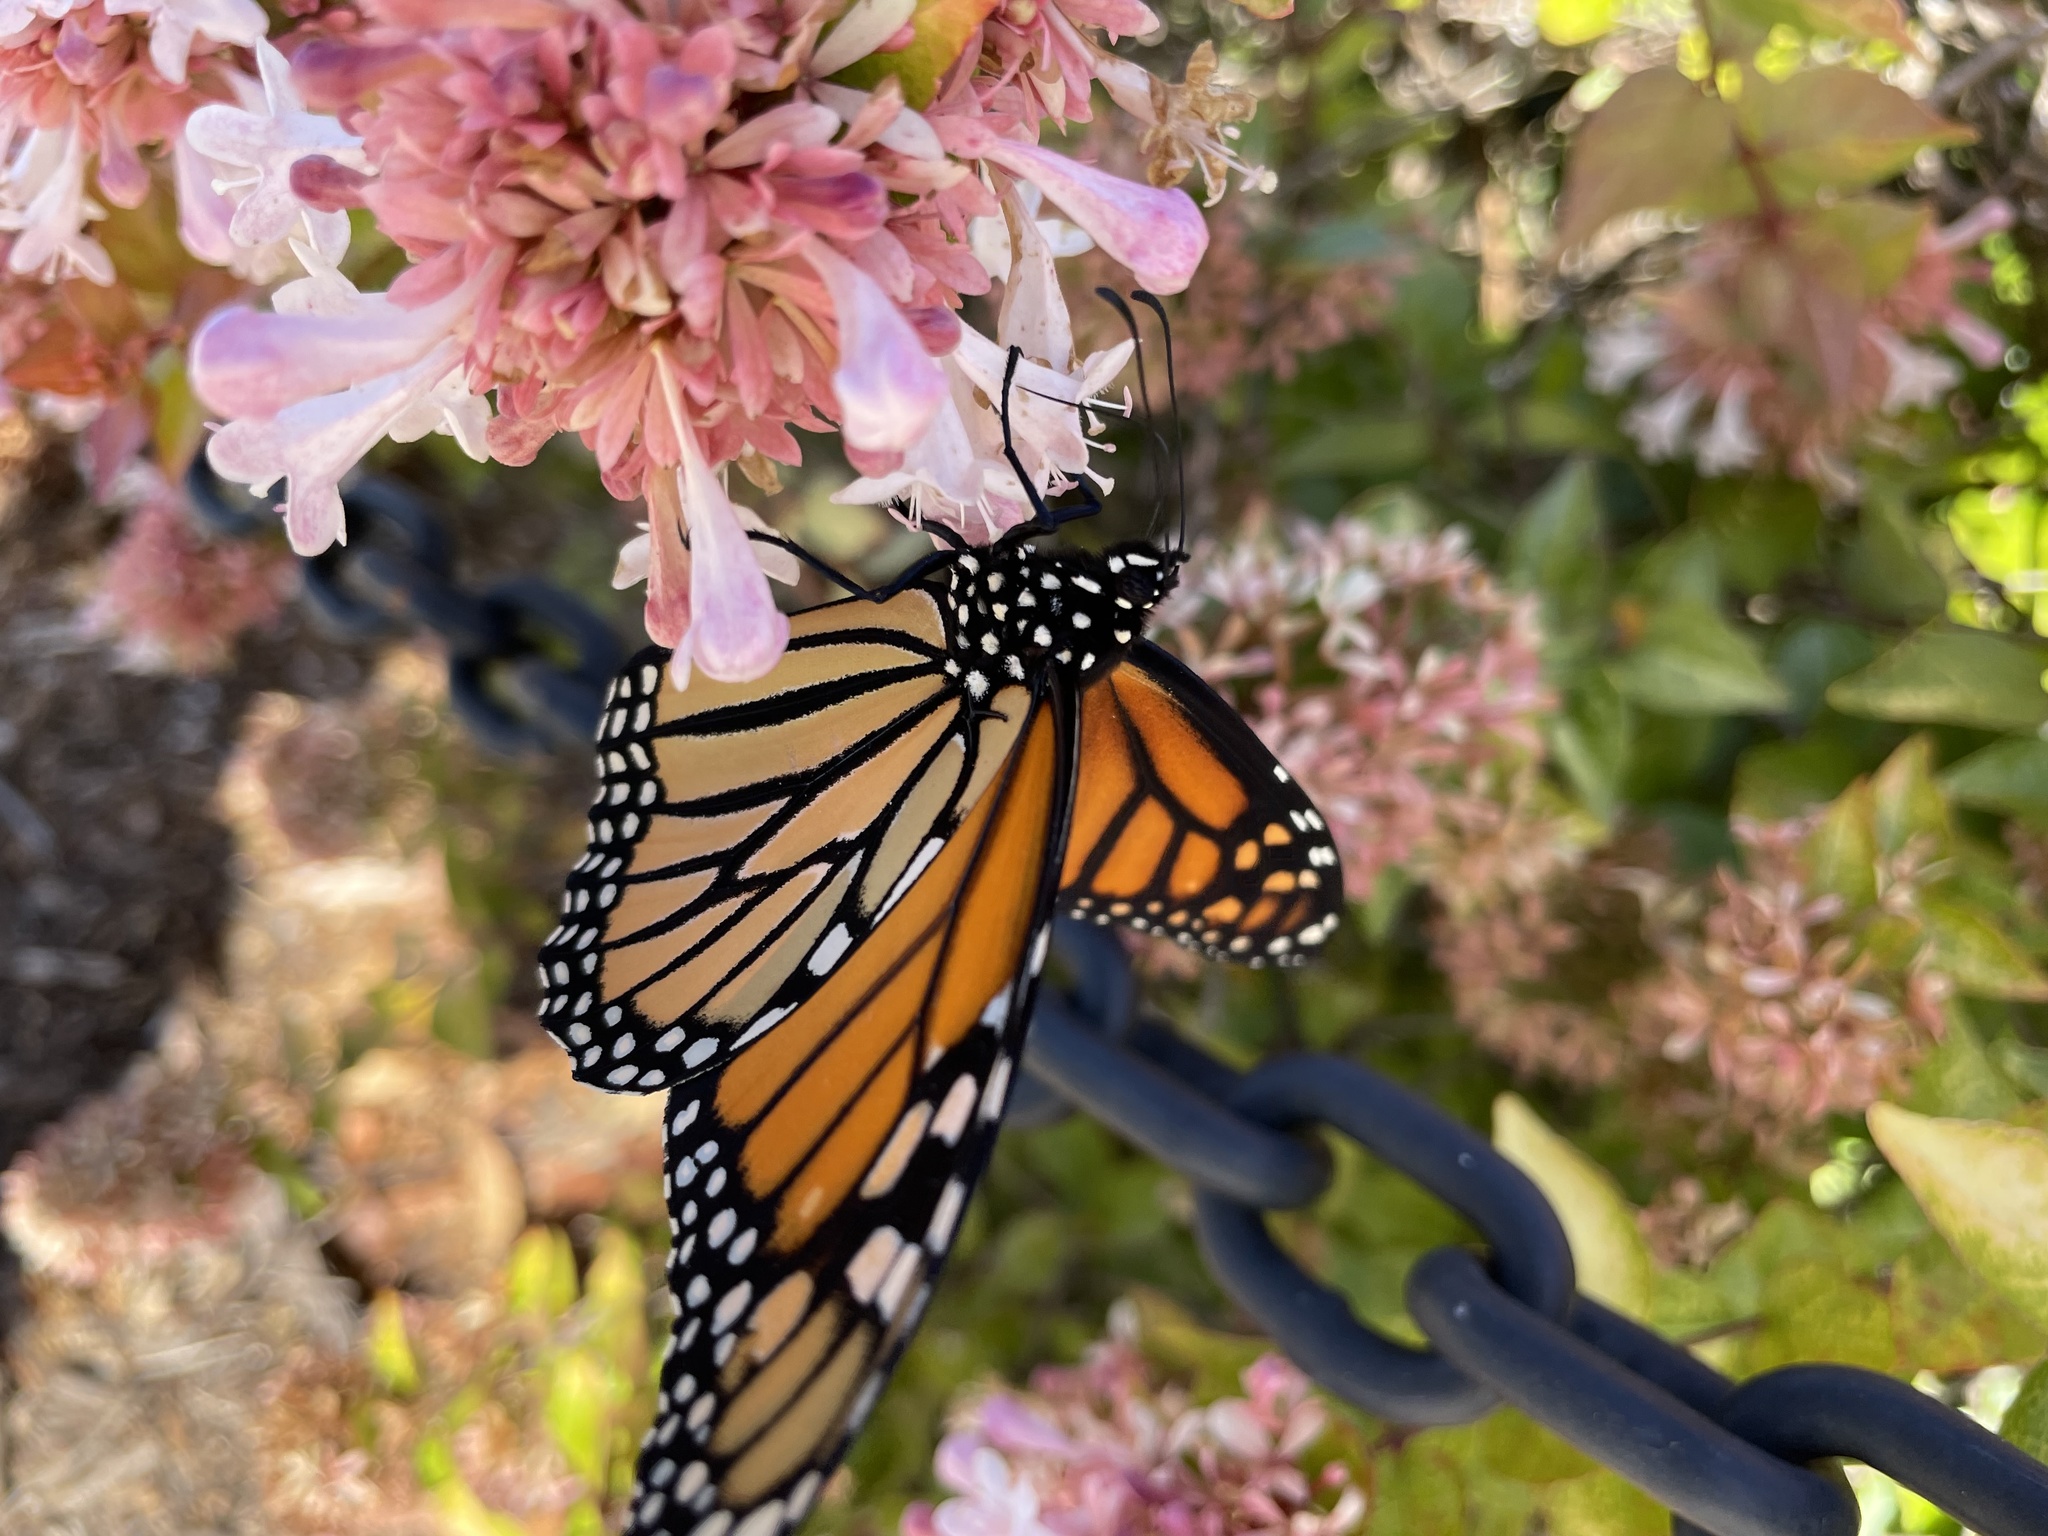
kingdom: Animalia
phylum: Arthropoda
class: Insecta
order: Lepidoptera
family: Nymphalidae
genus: Danaus
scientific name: Danaus plexippus
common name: Monarch
